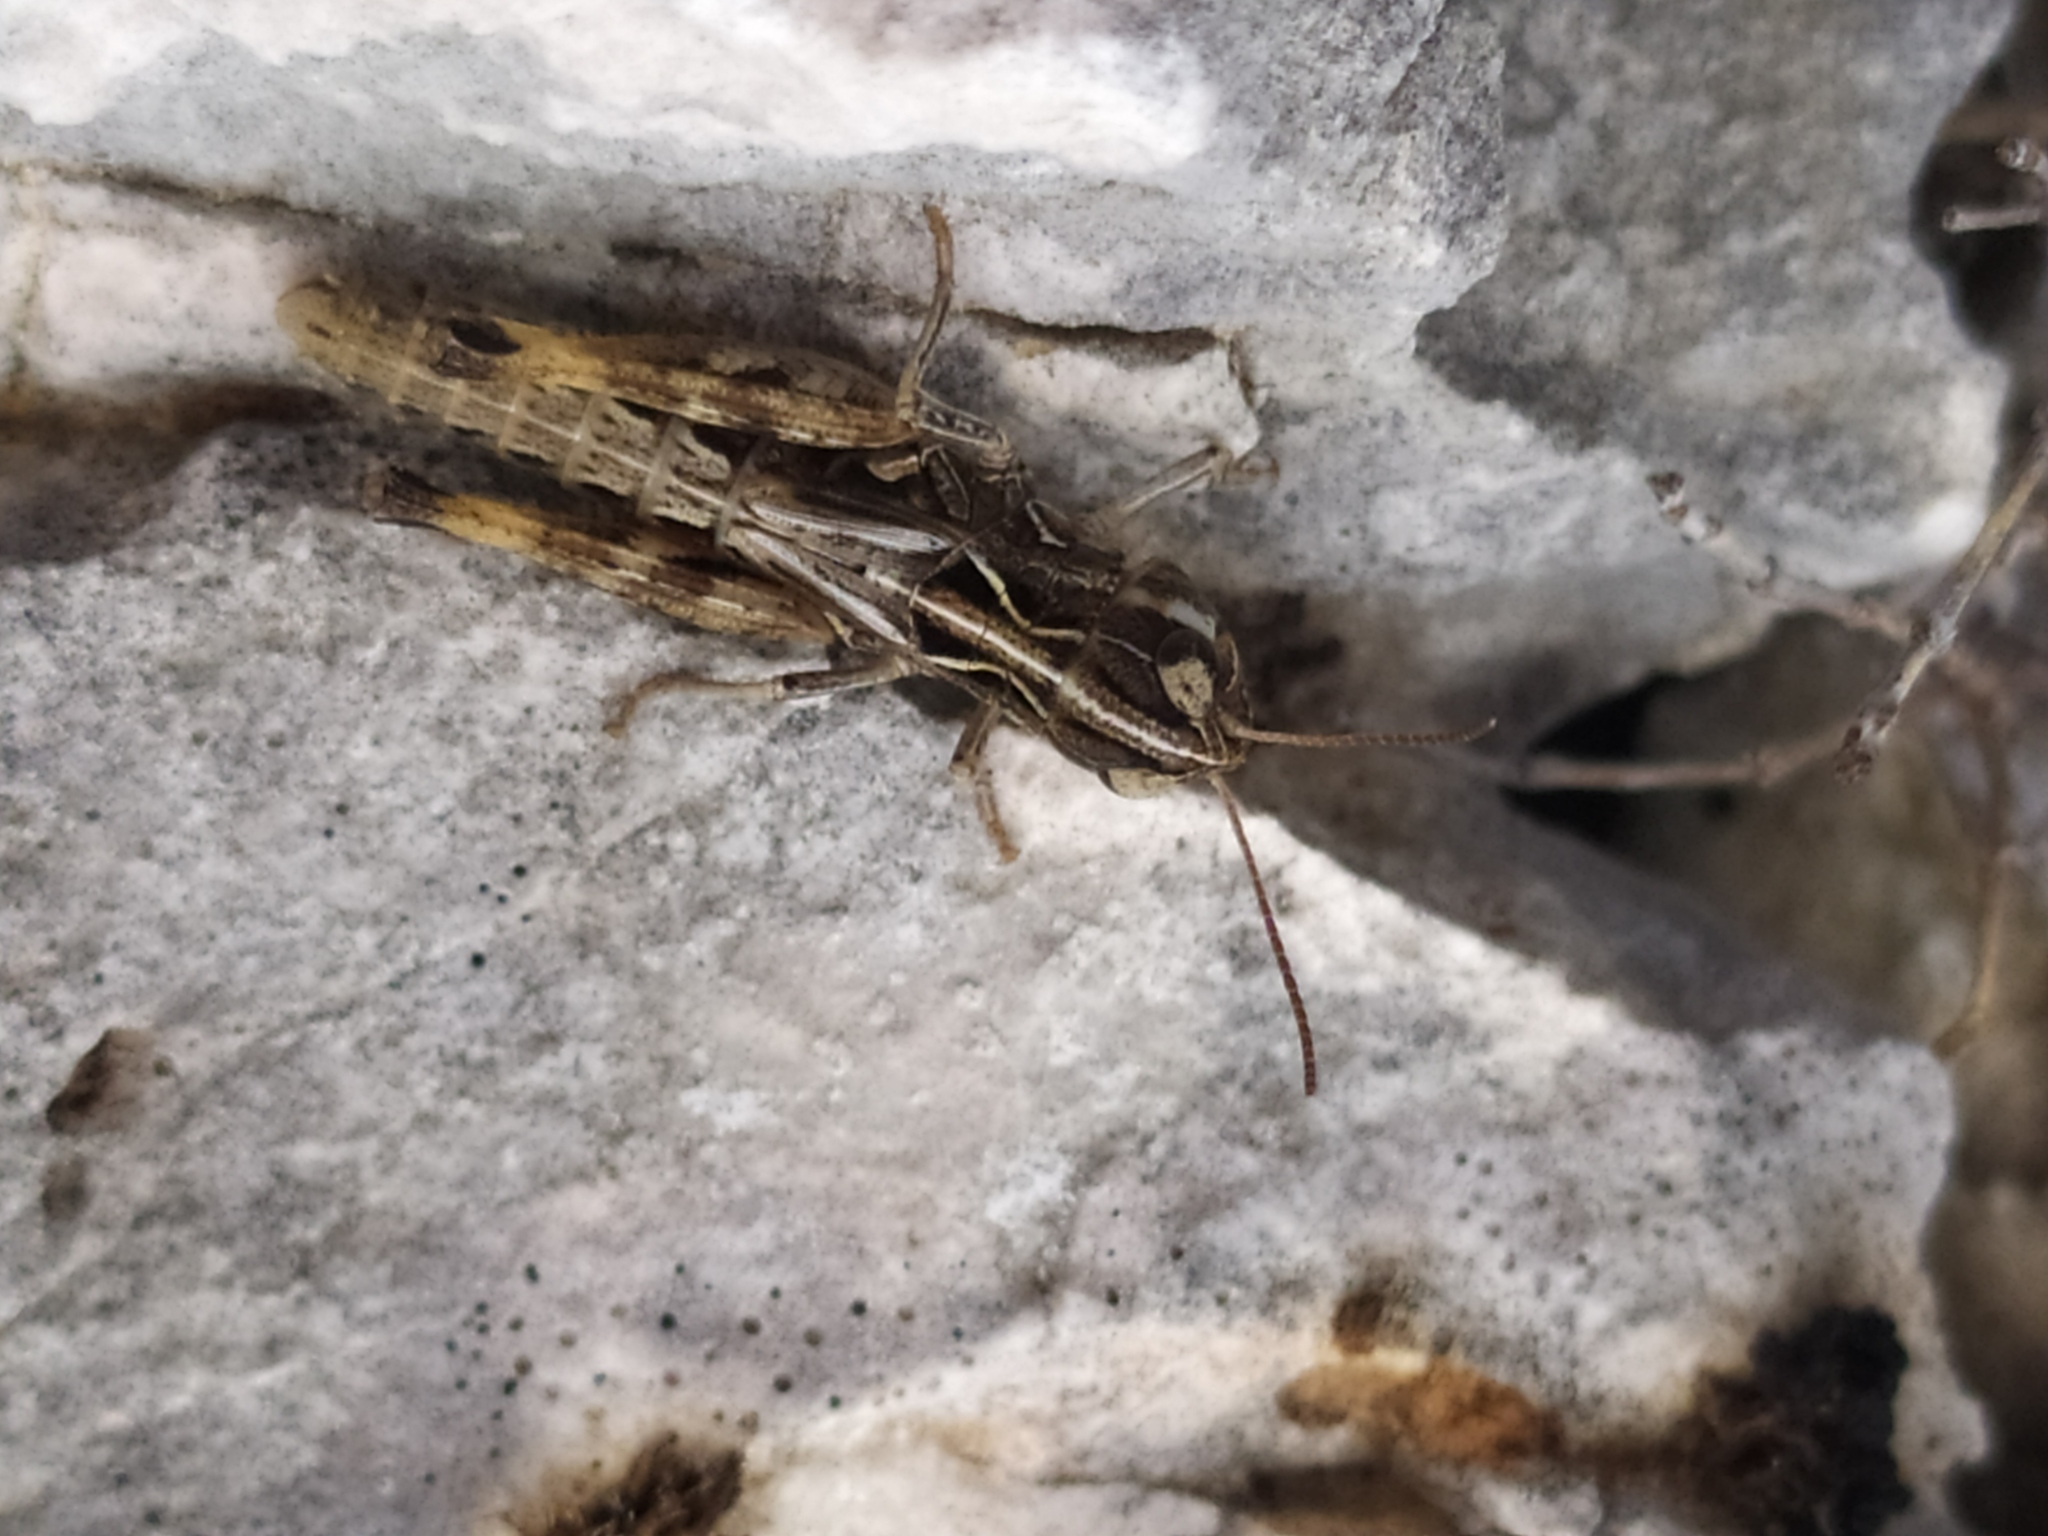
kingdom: Animalia
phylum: Arthropoda
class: Insecta
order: Orthoptera
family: Acrididae
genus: Rammeihippus
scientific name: Rammeihippus dinaricus
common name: Dinarian grasshopper
